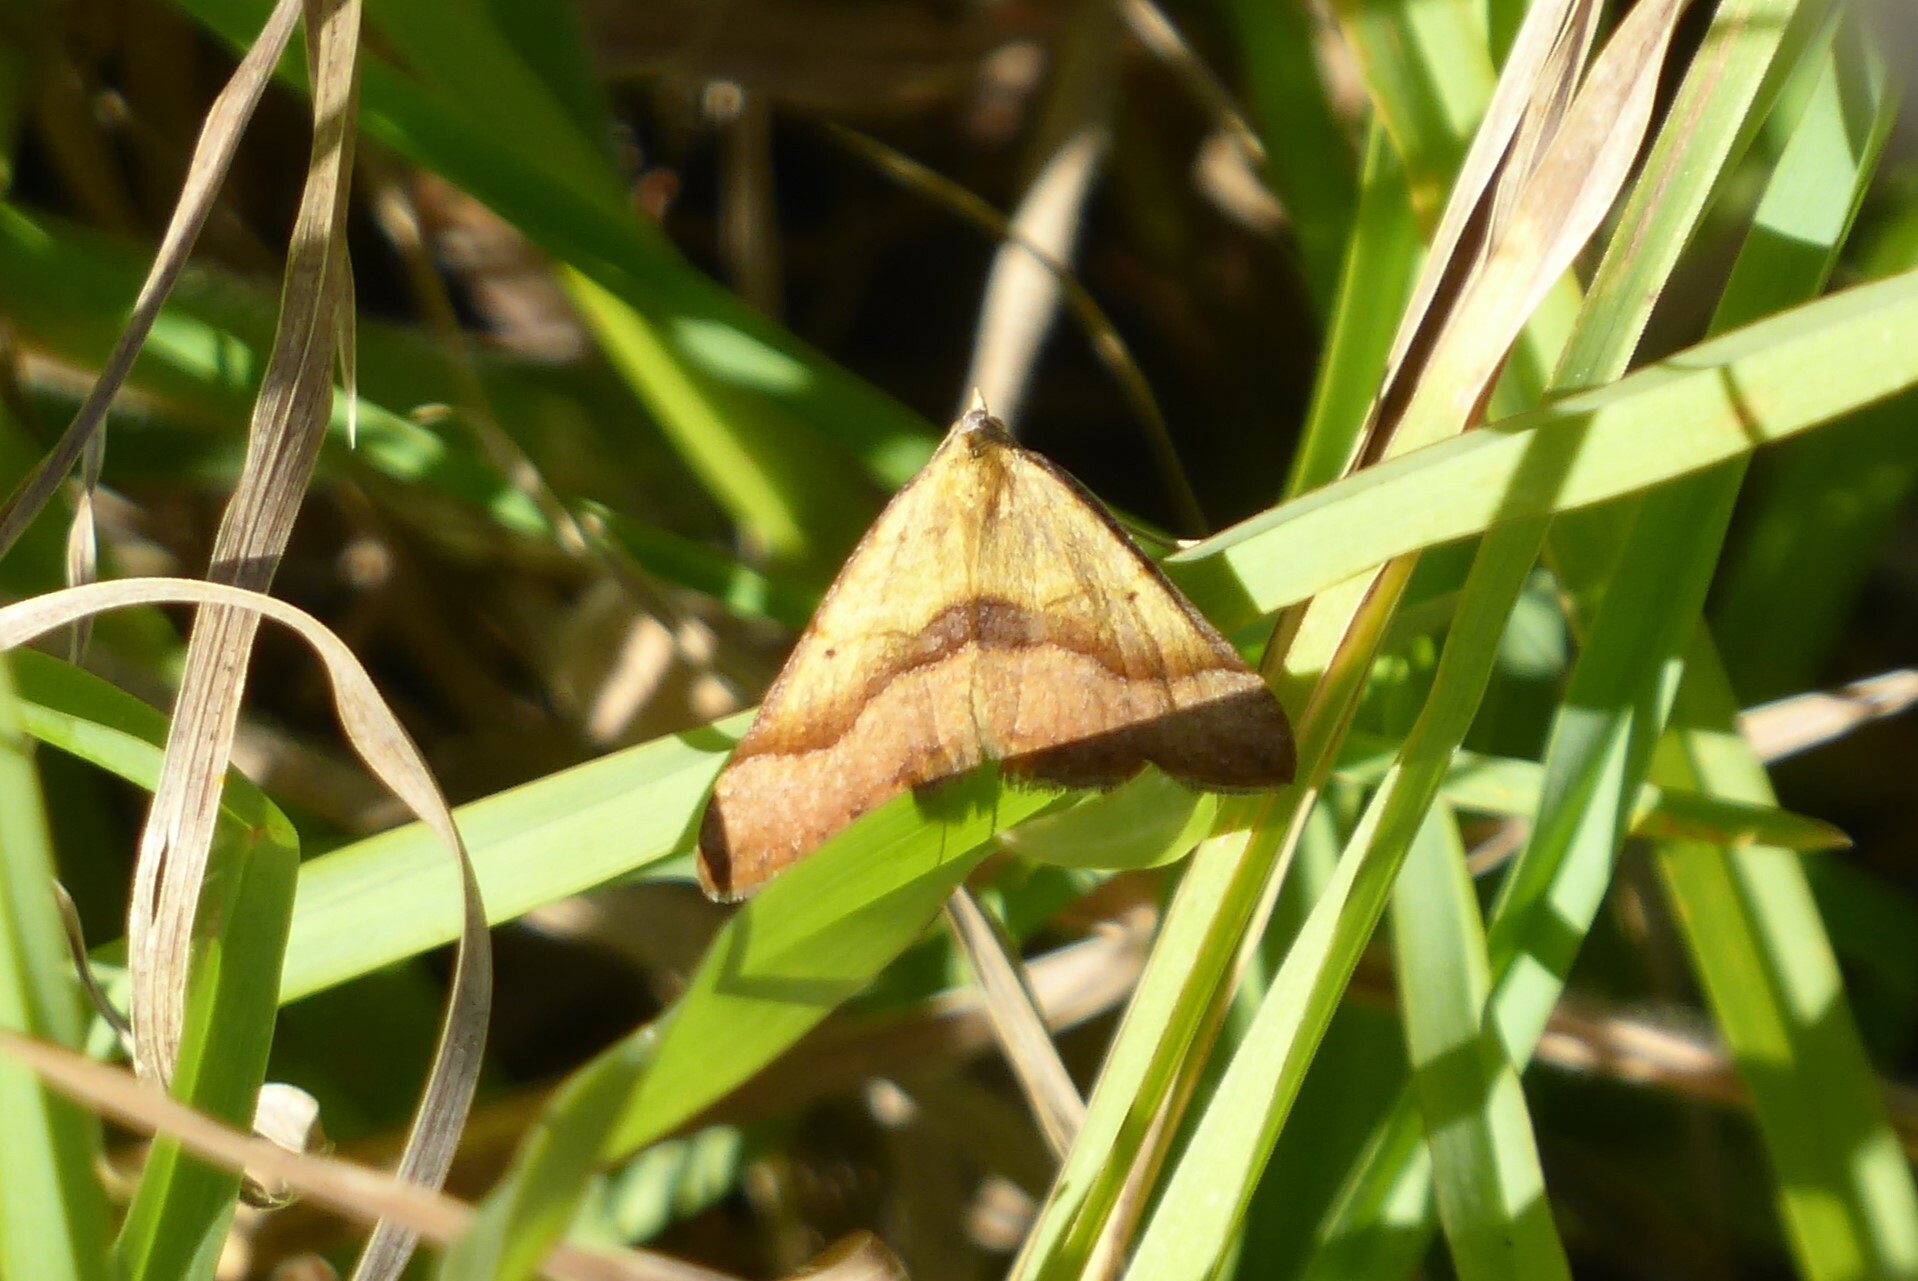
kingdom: Animalia
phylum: Arthropoda
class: Insecta
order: Lepidoptera
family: Geometridae
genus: Anachloris
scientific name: Anachloris subochraria
